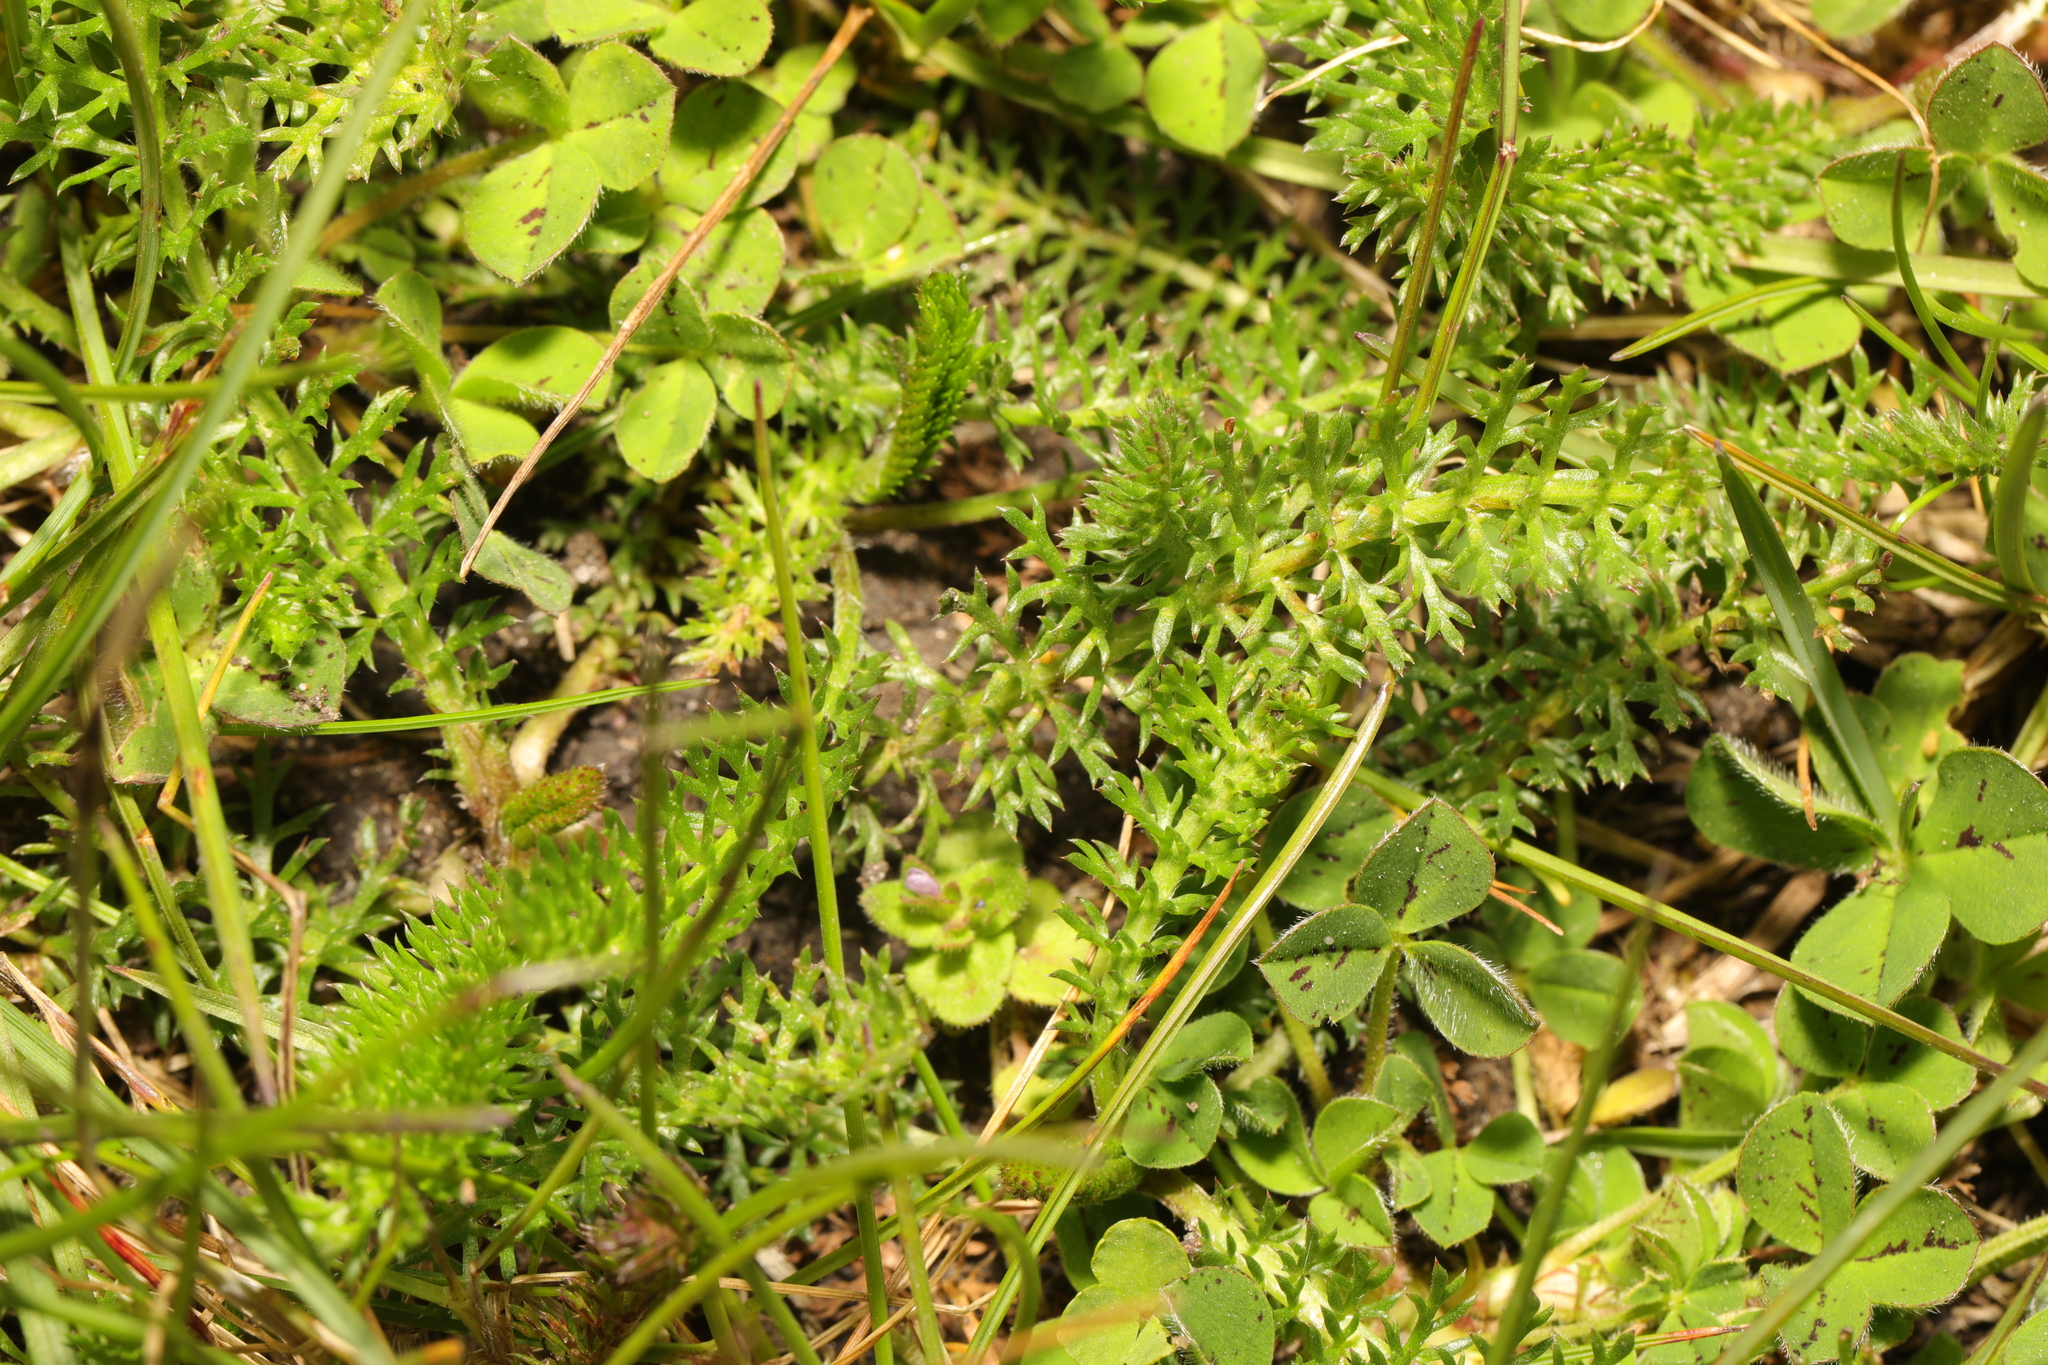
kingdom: Plantae
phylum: Tracheophyta
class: Magnoliopsida
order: Asterales
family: Asteraceae
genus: Achillea
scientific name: Achillea millefolium
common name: Yarrow
